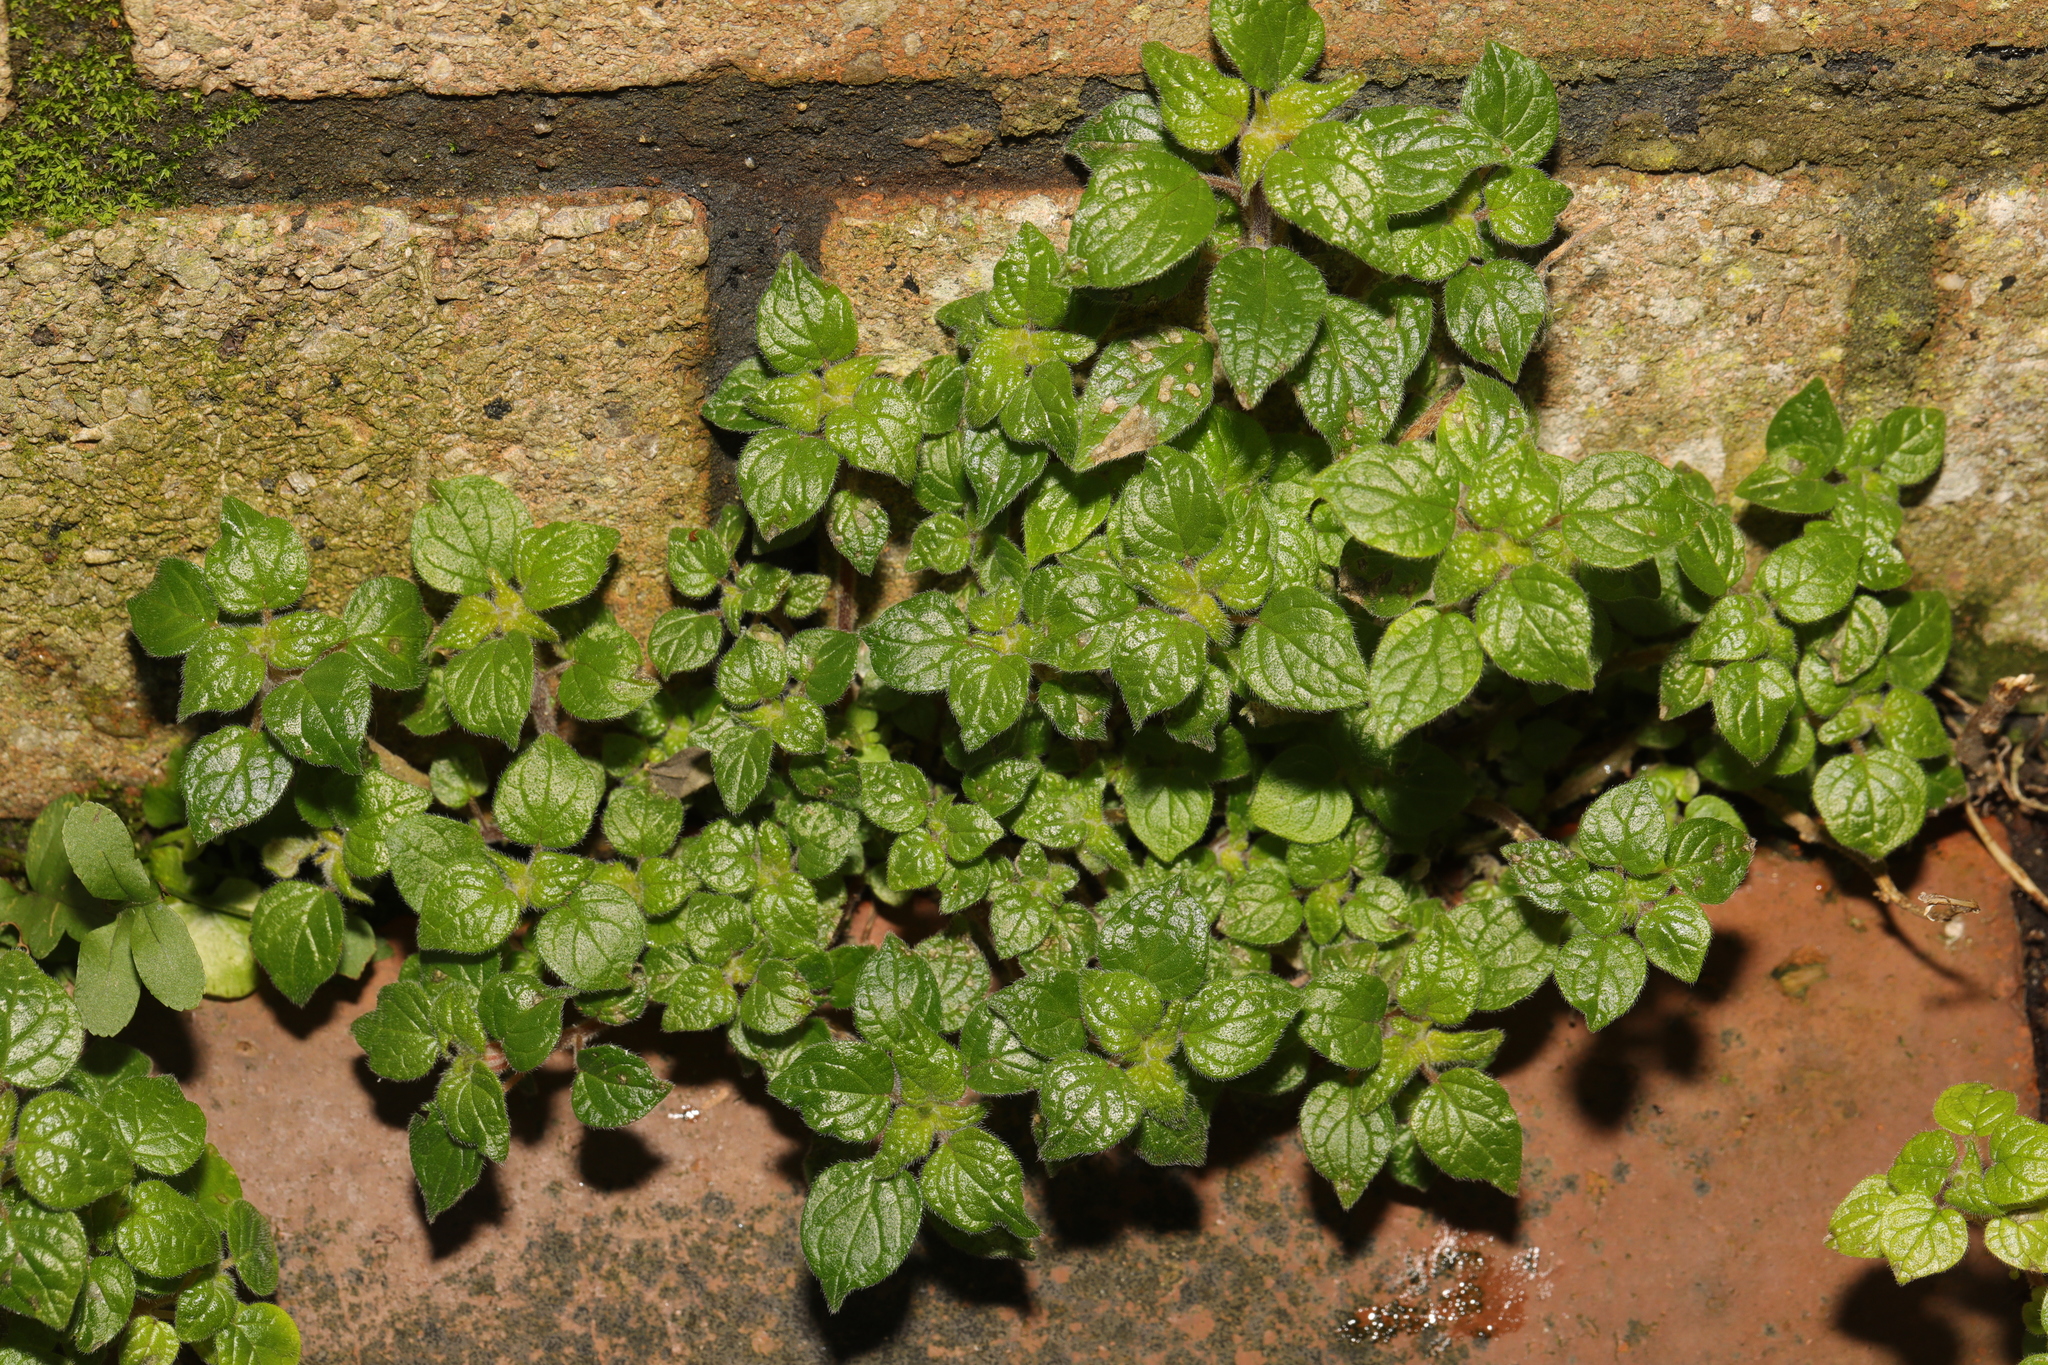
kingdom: Plantae
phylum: Tracheophyta
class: Magnoliopsida
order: Rosales
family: Urticaceae
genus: Parietaria
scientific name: Parietaria judaica
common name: Pellitory-of-the-wall
